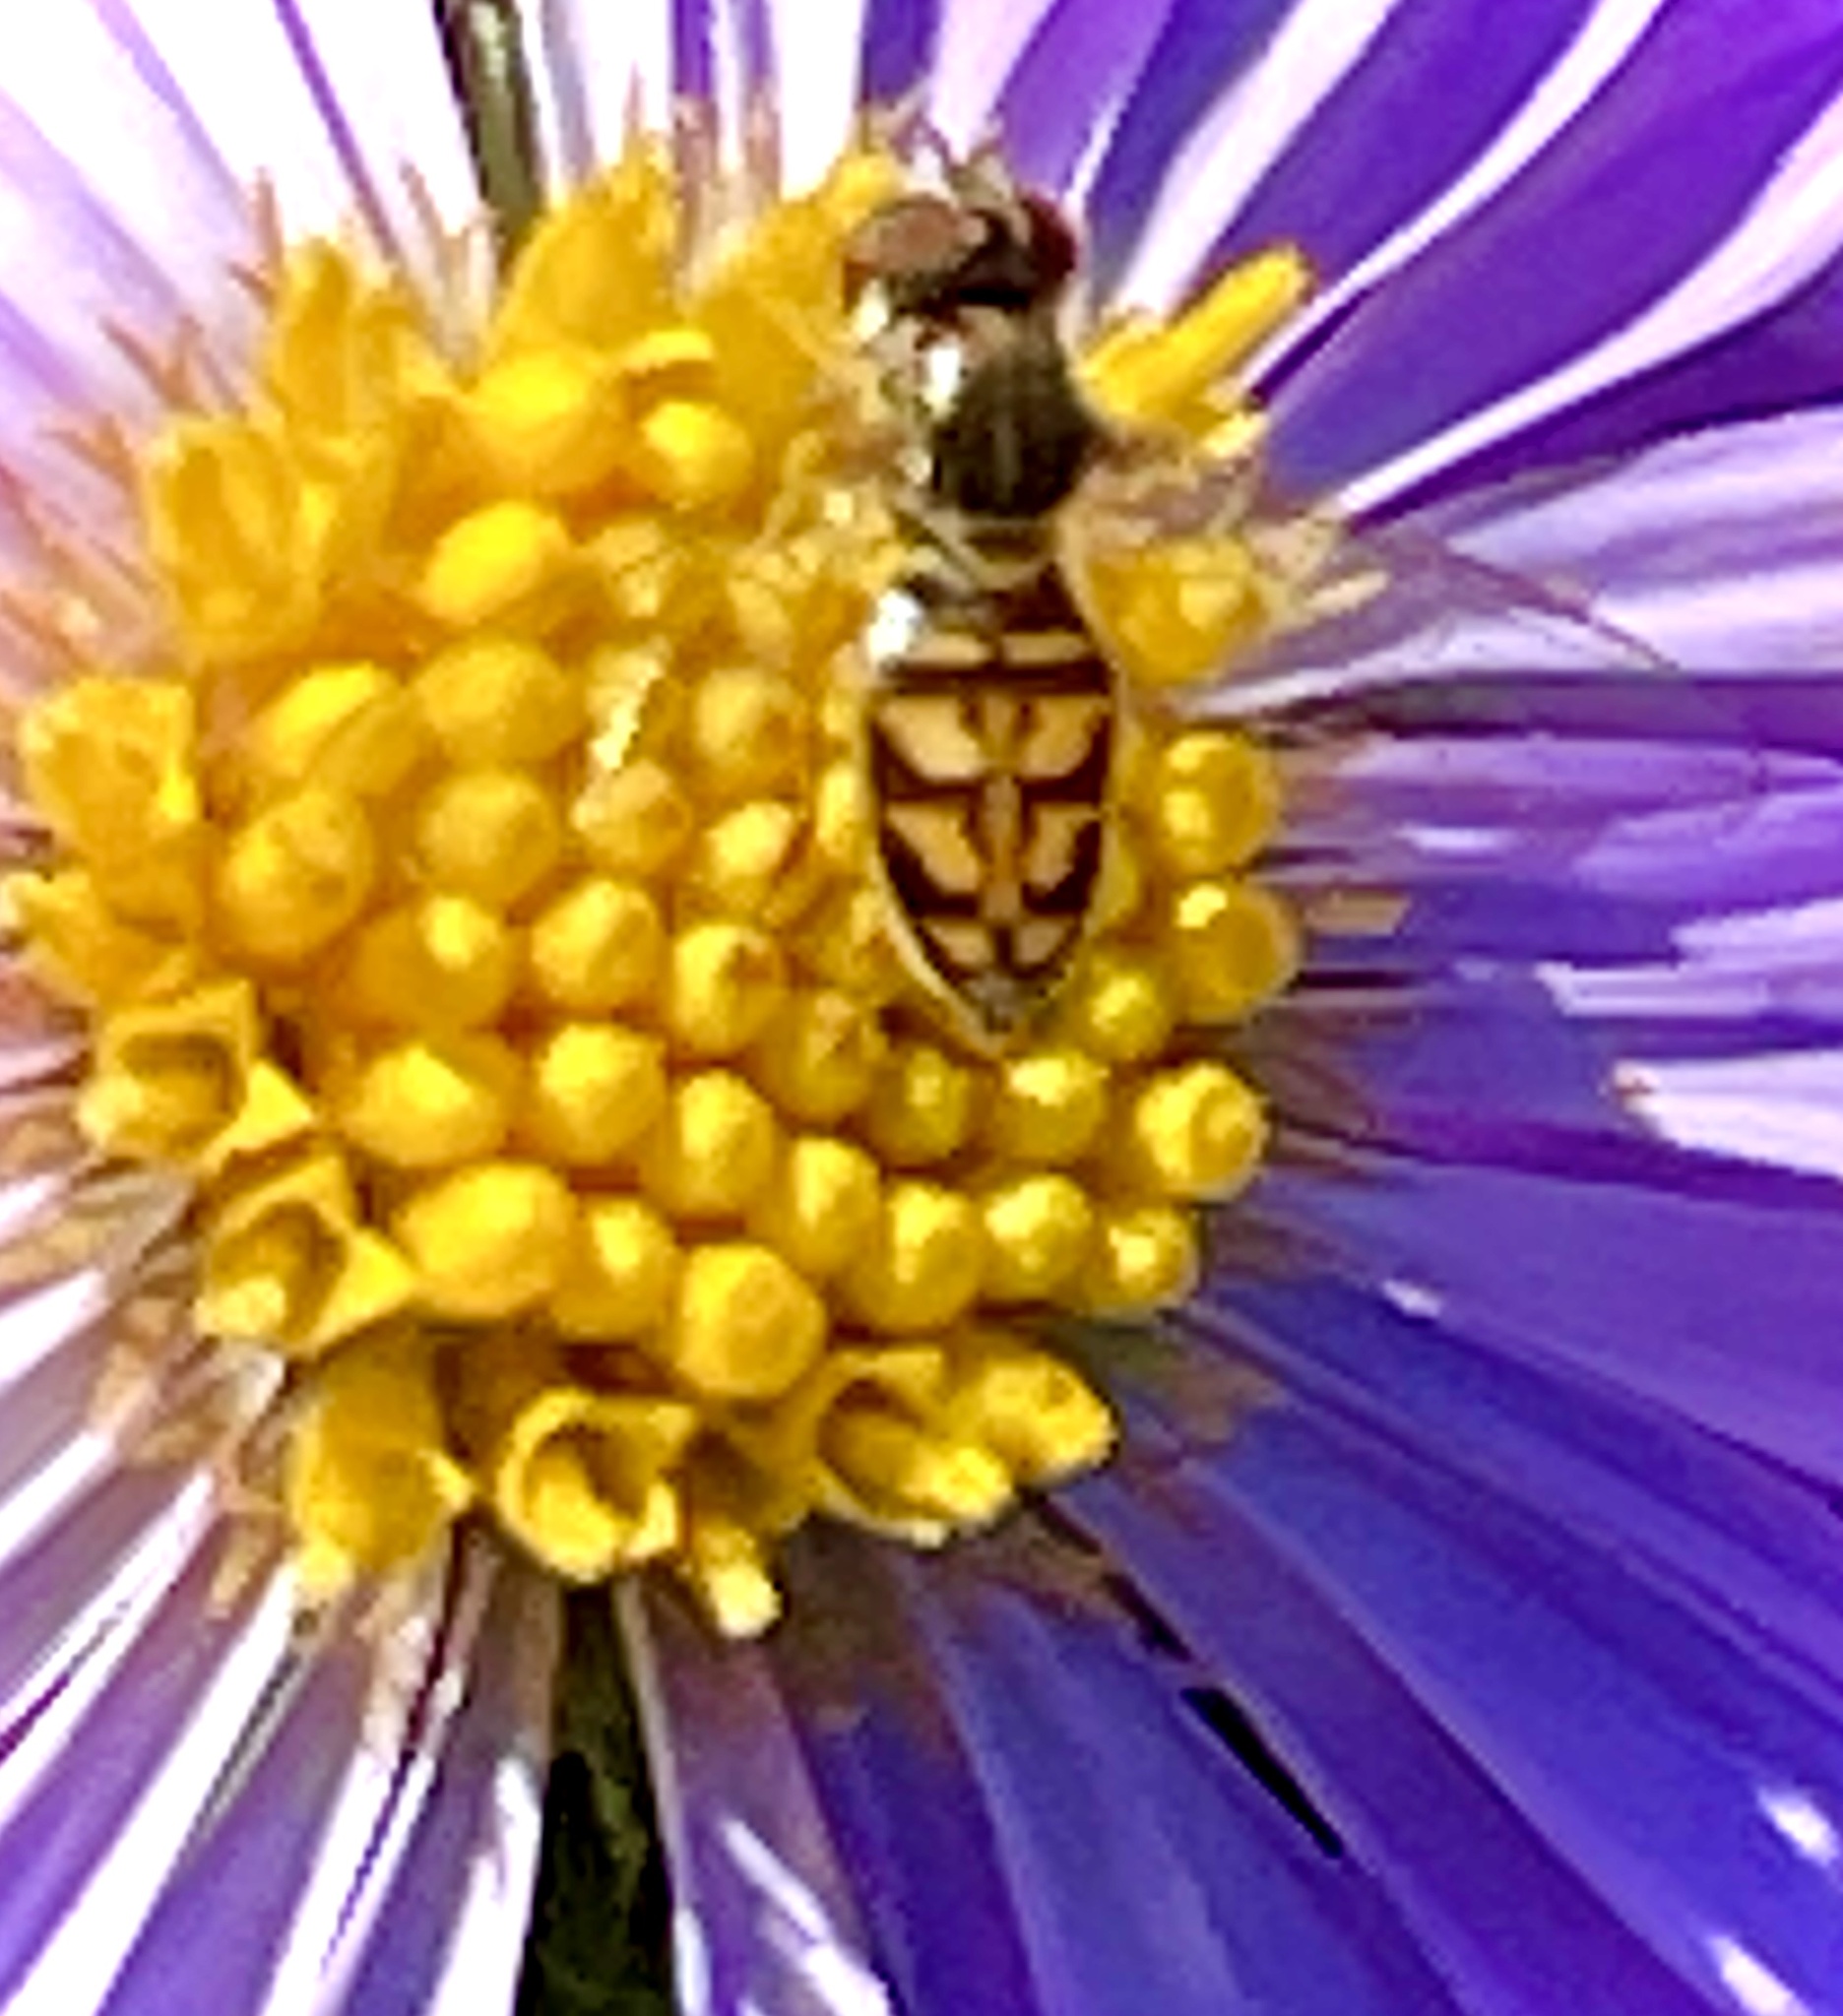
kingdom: Animalia
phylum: Arthropoda
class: Insecta
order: Diptera
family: Syrphidae
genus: Toxomerus
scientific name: Toxomerus marginatus
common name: Syrphid fly
